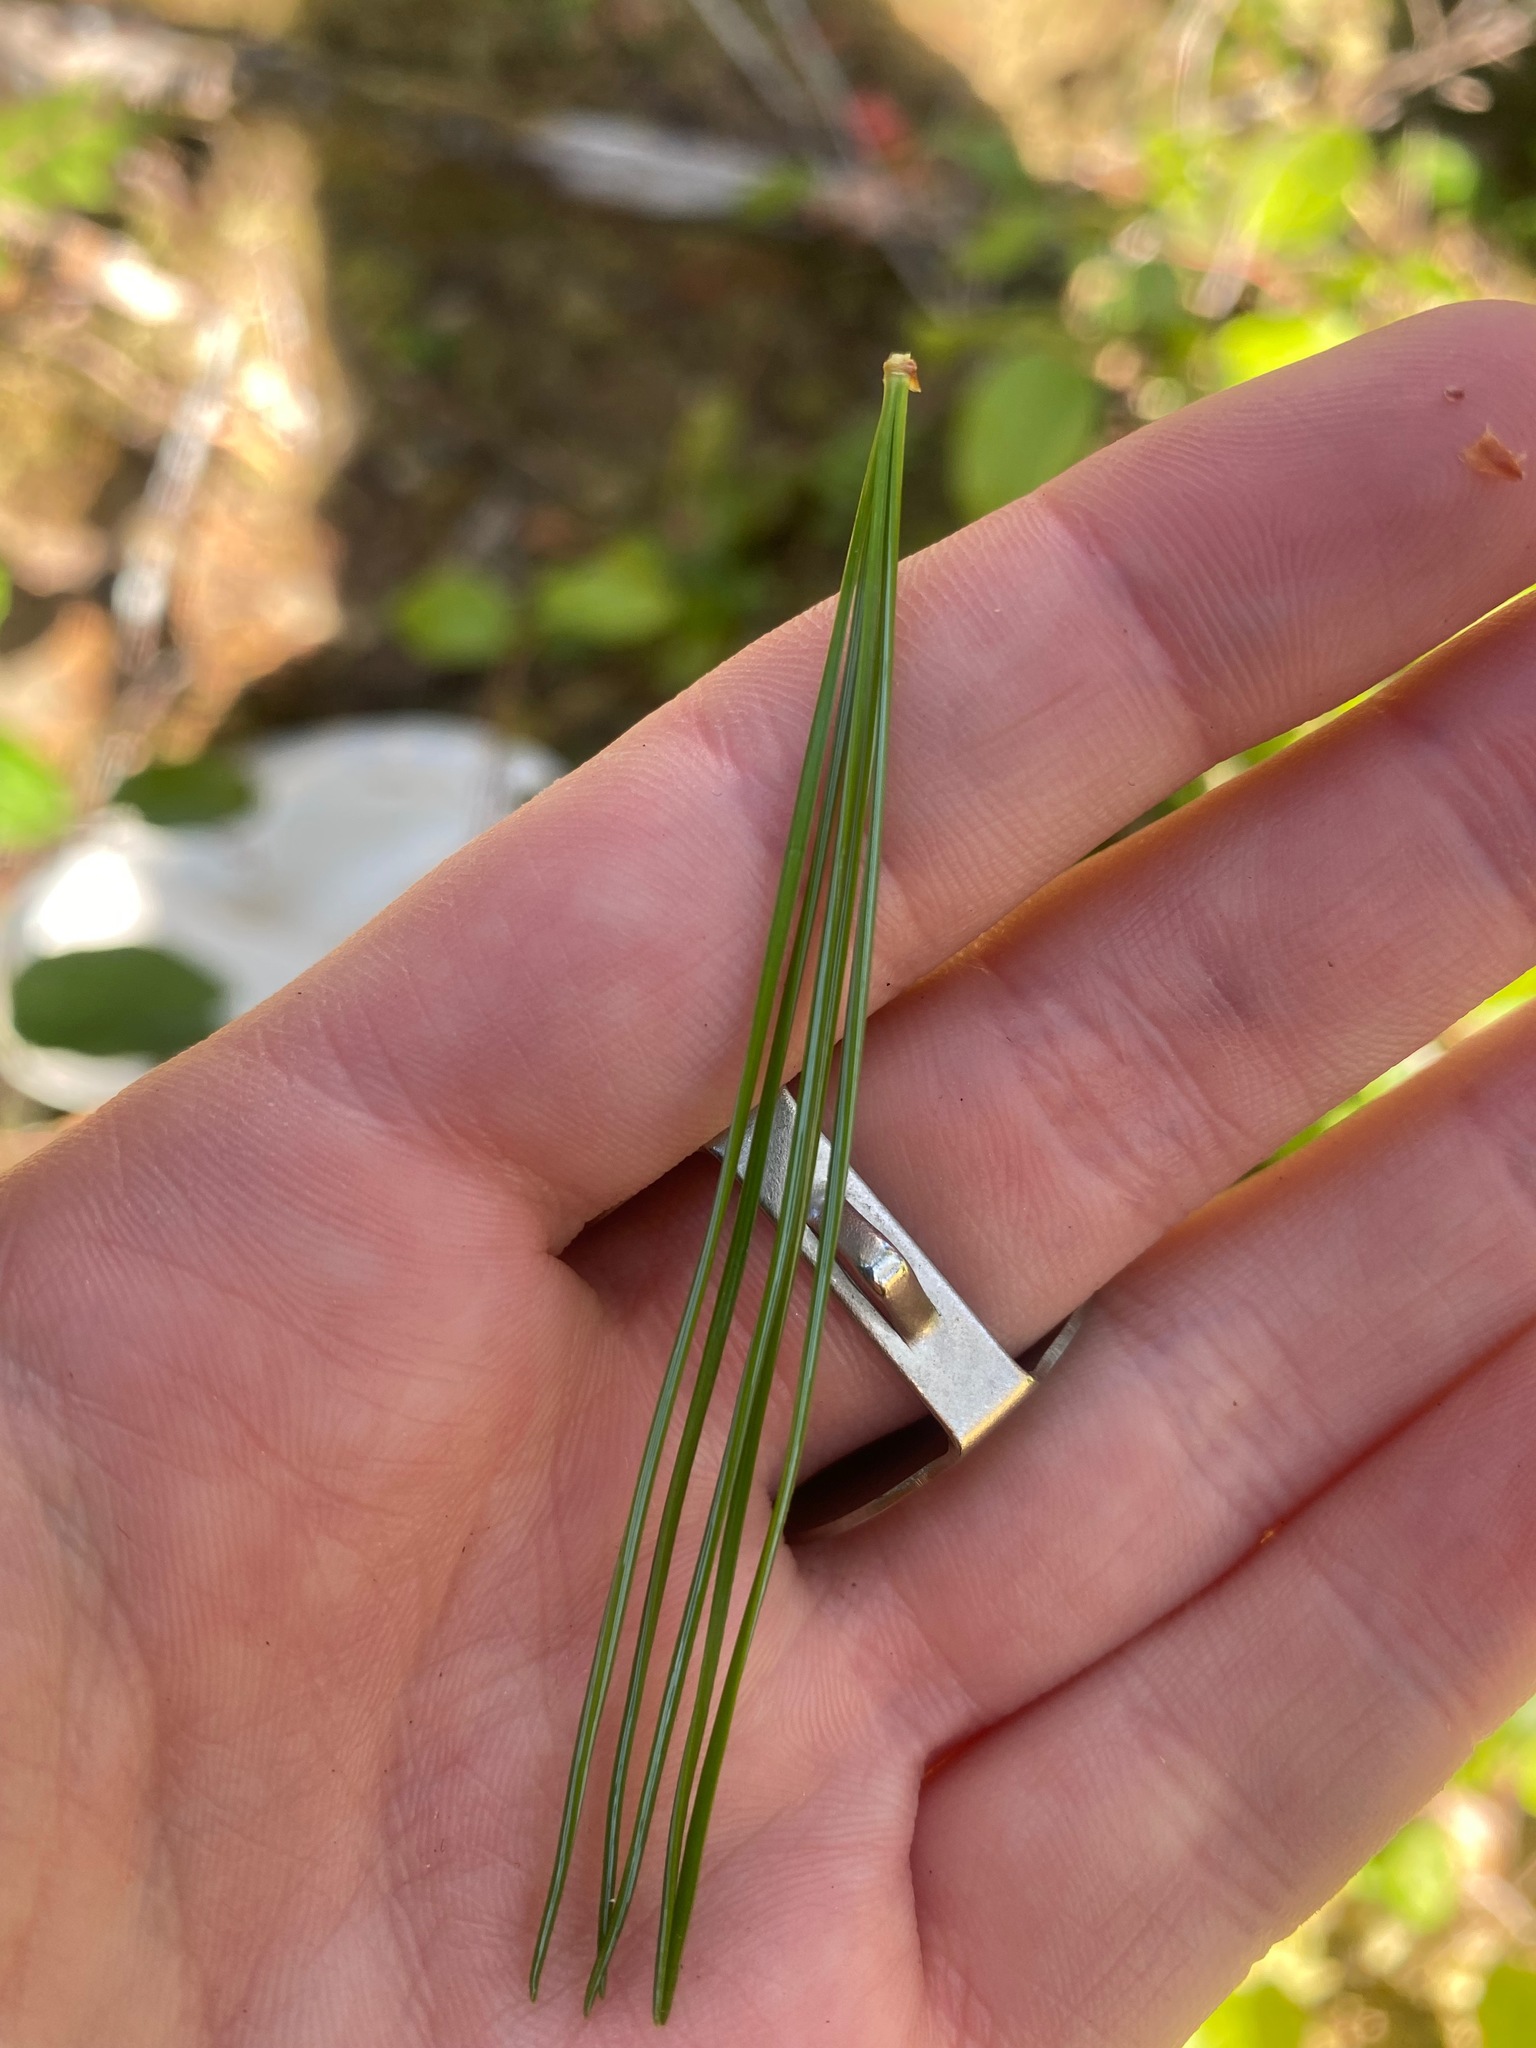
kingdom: Plantae
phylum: Tracheophyta
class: Pinopsida
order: Pinales
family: Pinaceae
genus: Pinus
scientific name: Pinus monticola
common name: Western white pine
